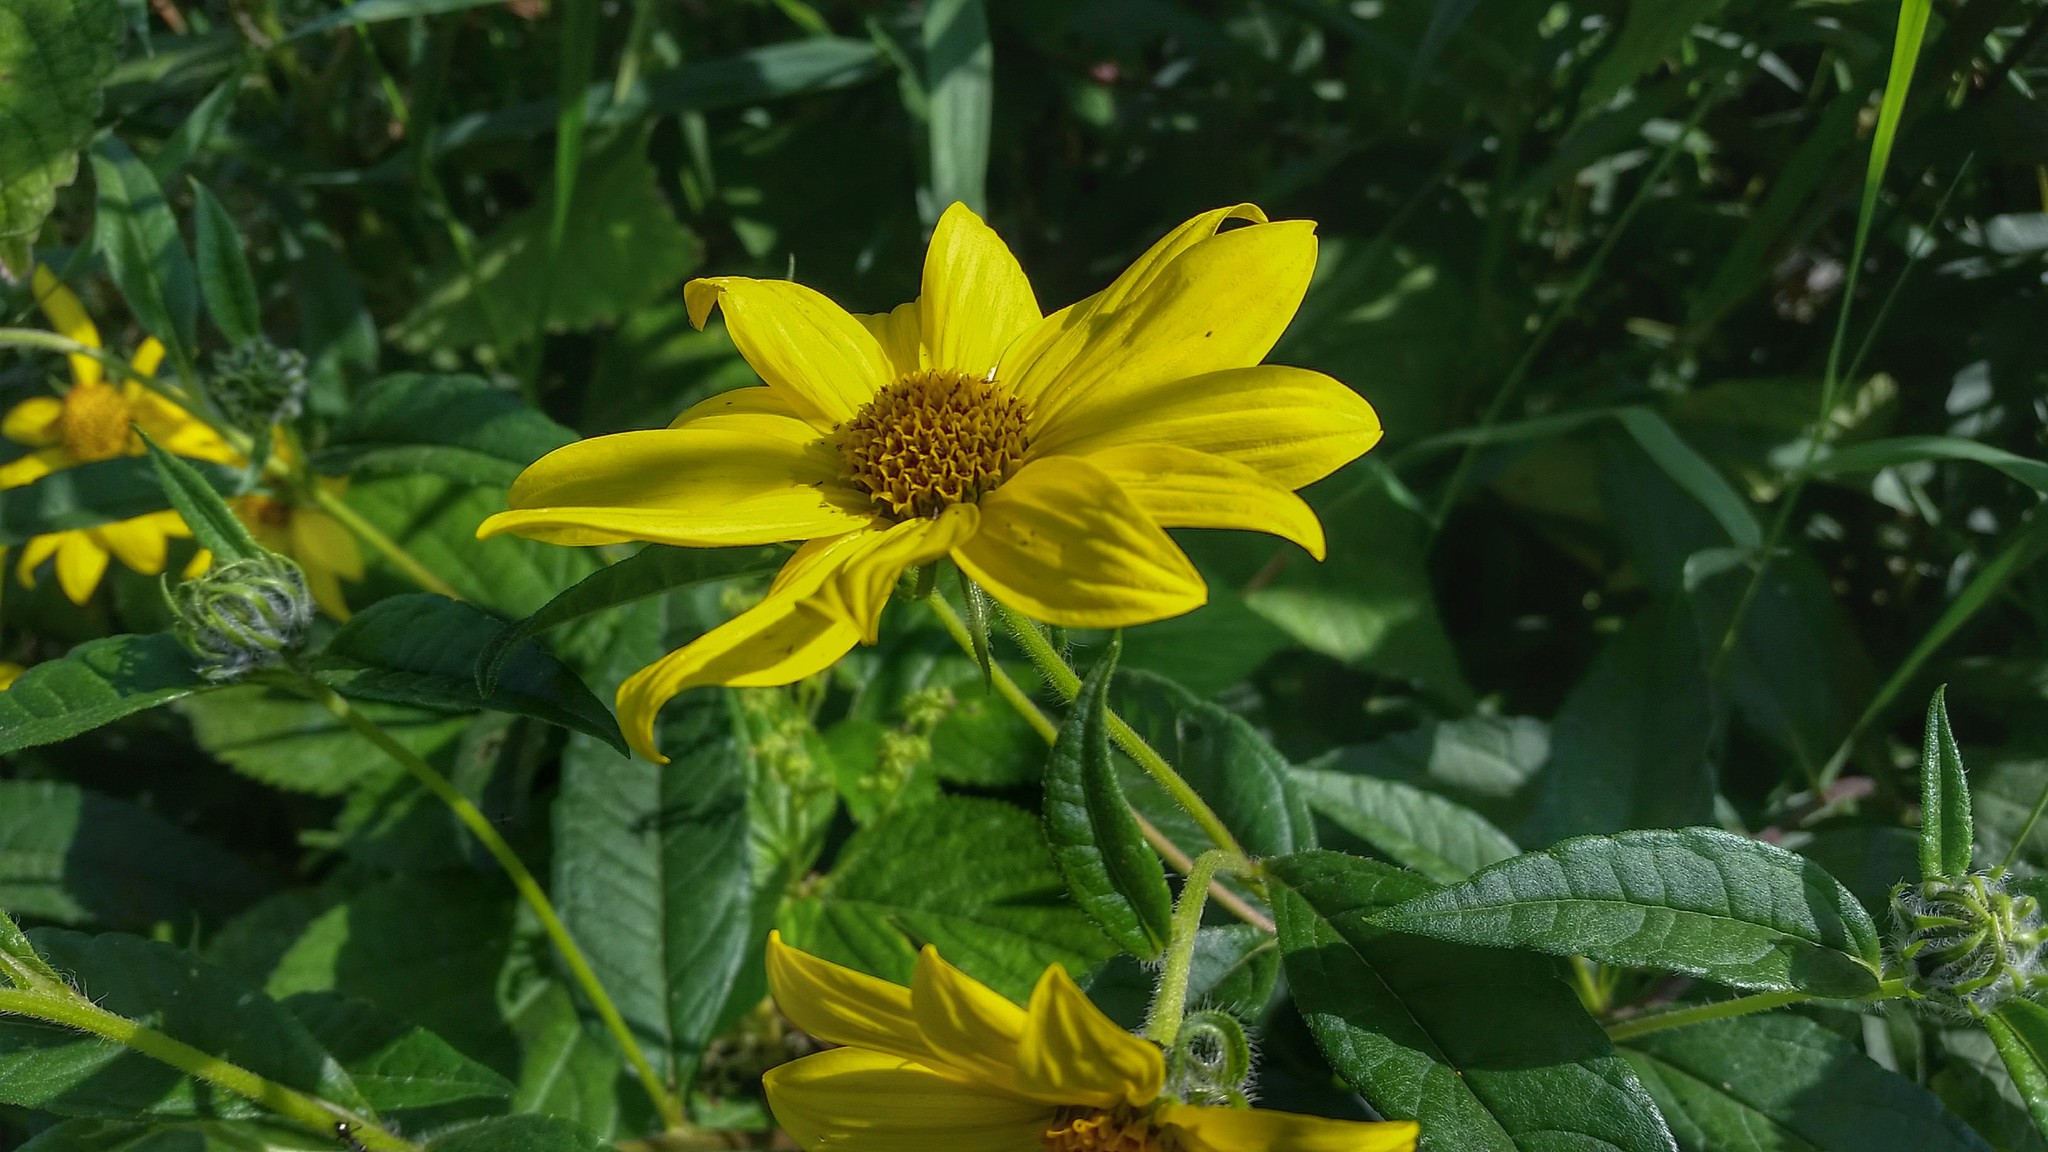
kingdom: Plantae
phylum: Tracheophyta
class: Magnoliopsida
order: Asterales
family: Asteraceae
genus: Helianthus
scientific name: Helianthus giganteus
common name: Giant sunflower
